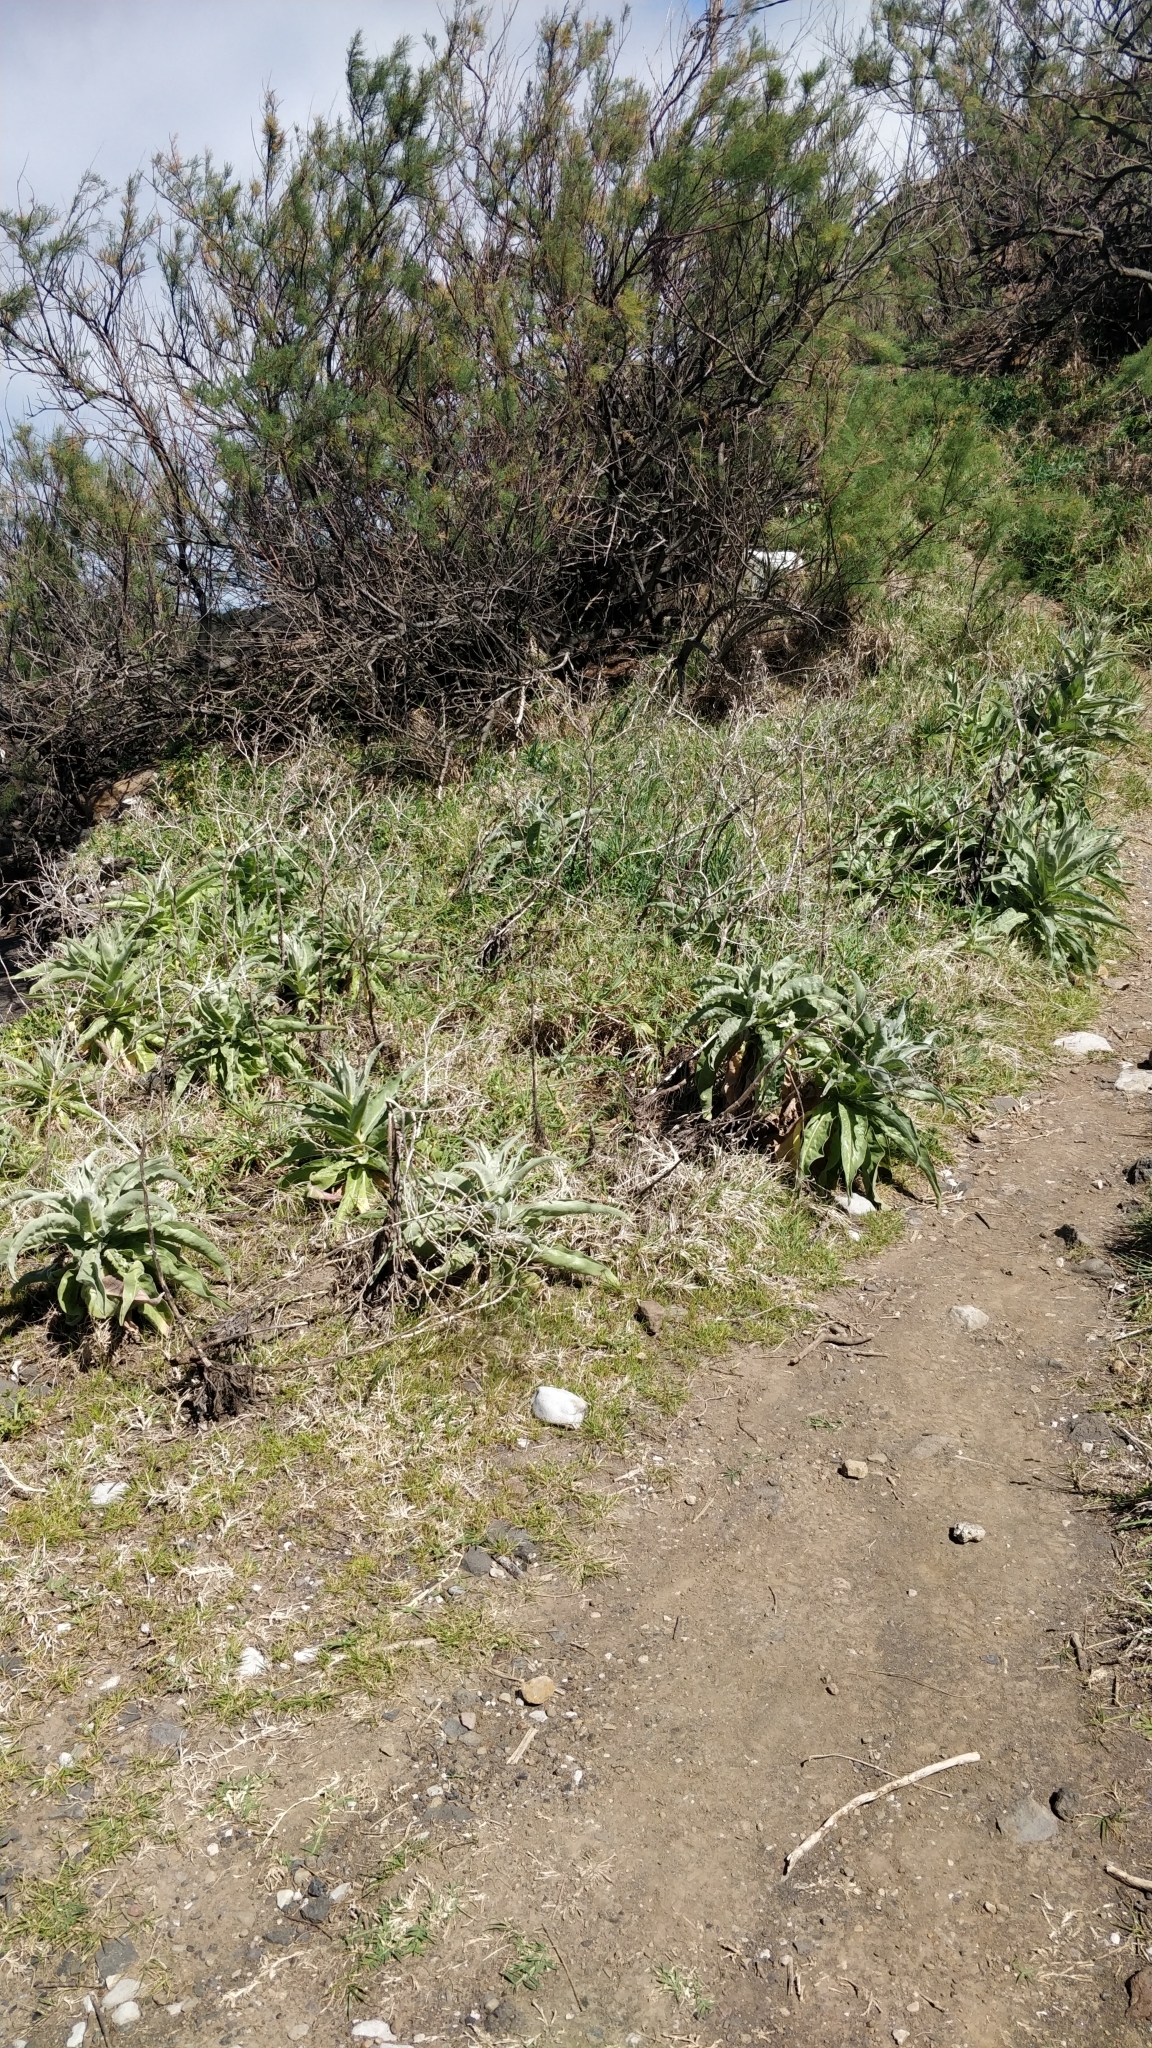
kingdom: Plantae
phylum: Tracheophyta
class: Magnoliopsida
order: Asterales
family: Asteraceae
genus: Andryala
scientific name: Andryala glandulosa
